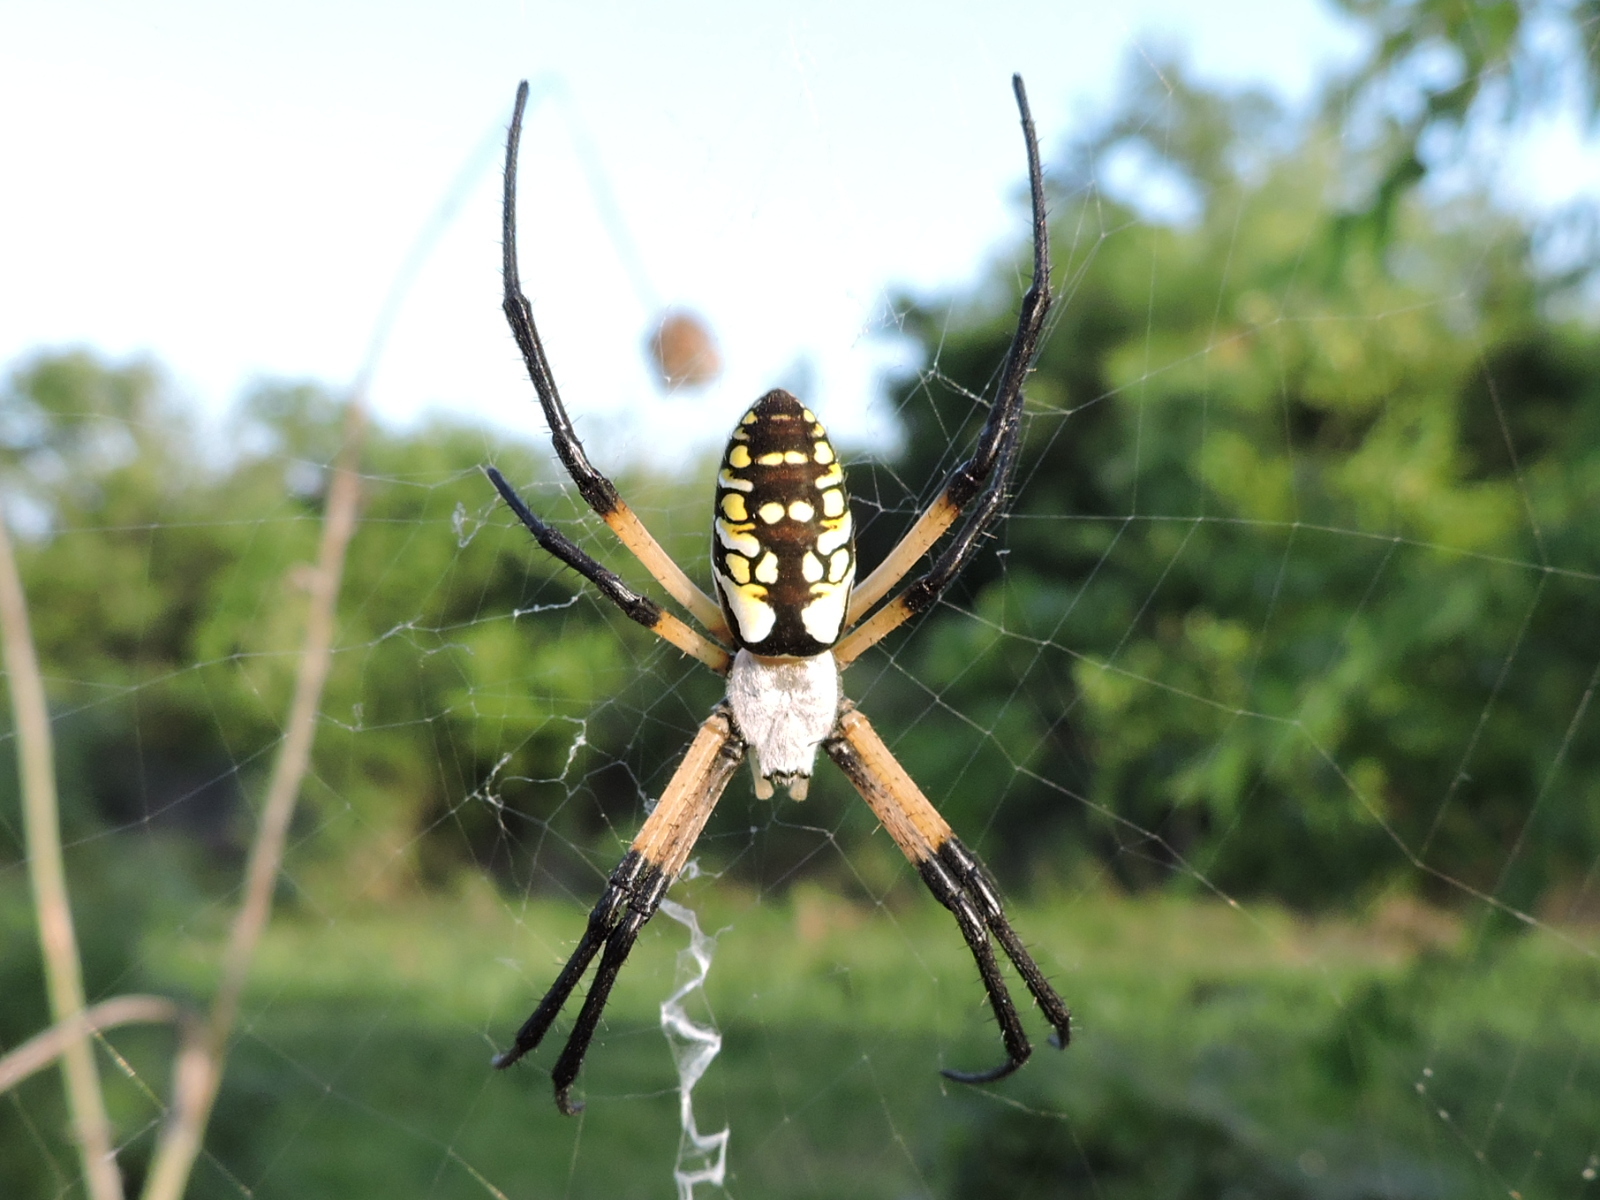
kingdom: Animalia
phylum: Arthropoda
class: Arachnida
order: Araneae
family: Araneidae
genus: Argiope
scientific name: Argiope aurantia
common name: Orb weavers
